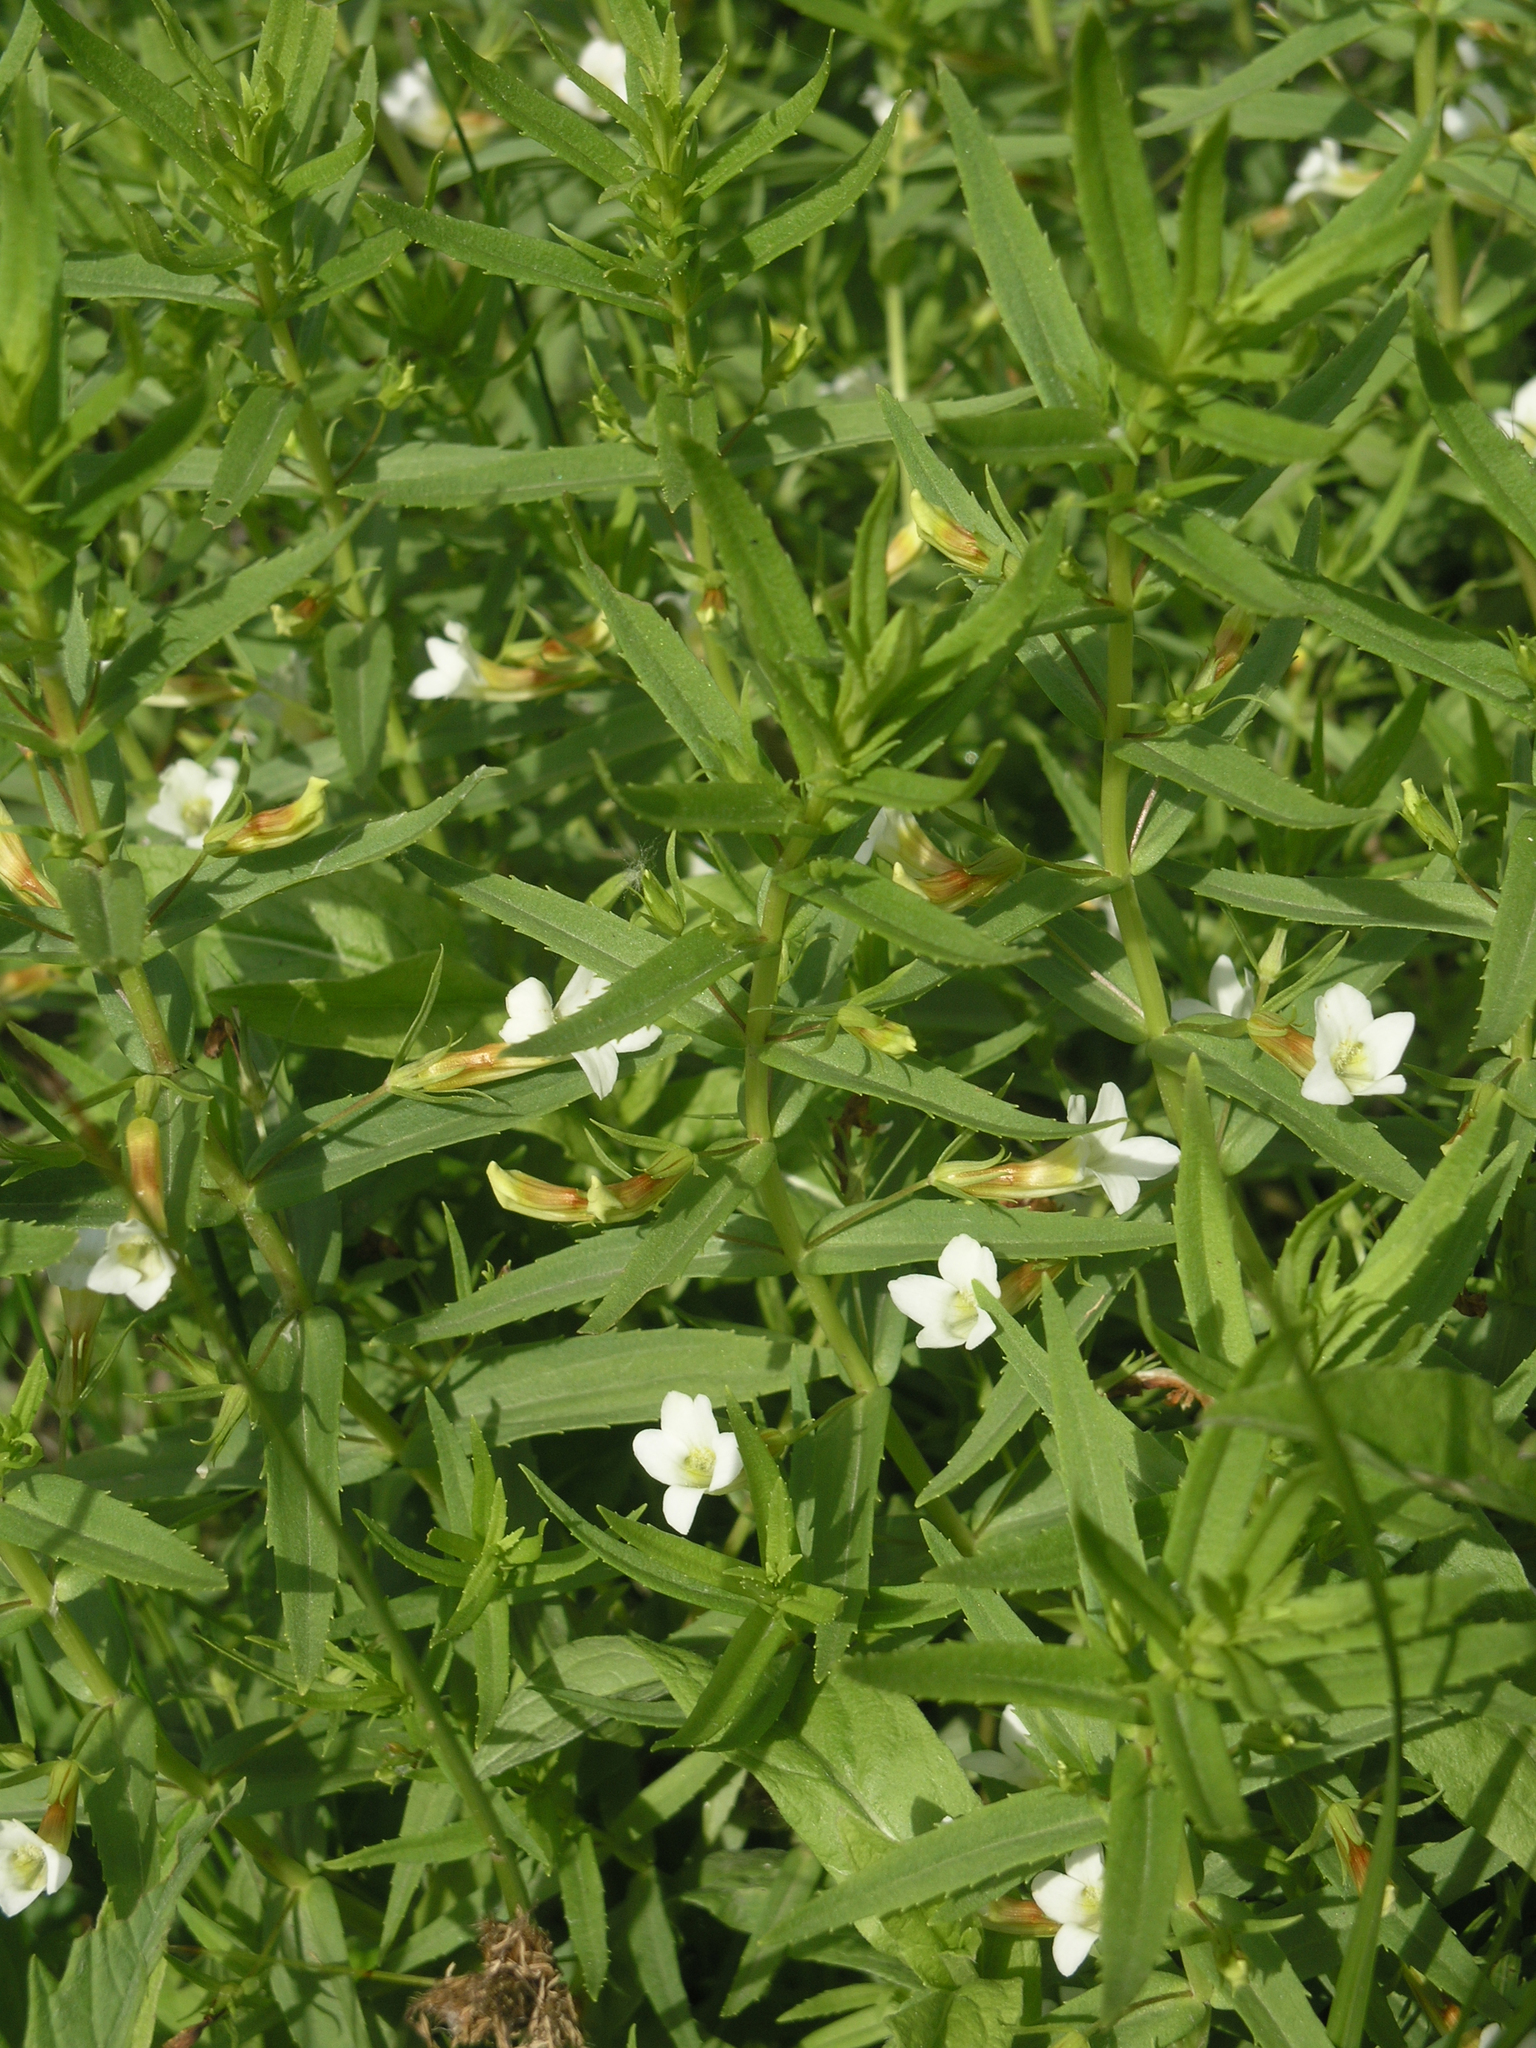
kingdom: Plantae
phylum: Tracheophyta
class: Magnoliopsida
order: Lamiales
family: Plantaginaceae
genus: Gratiola
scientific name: Gratiola officinalis
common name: Gratiola
